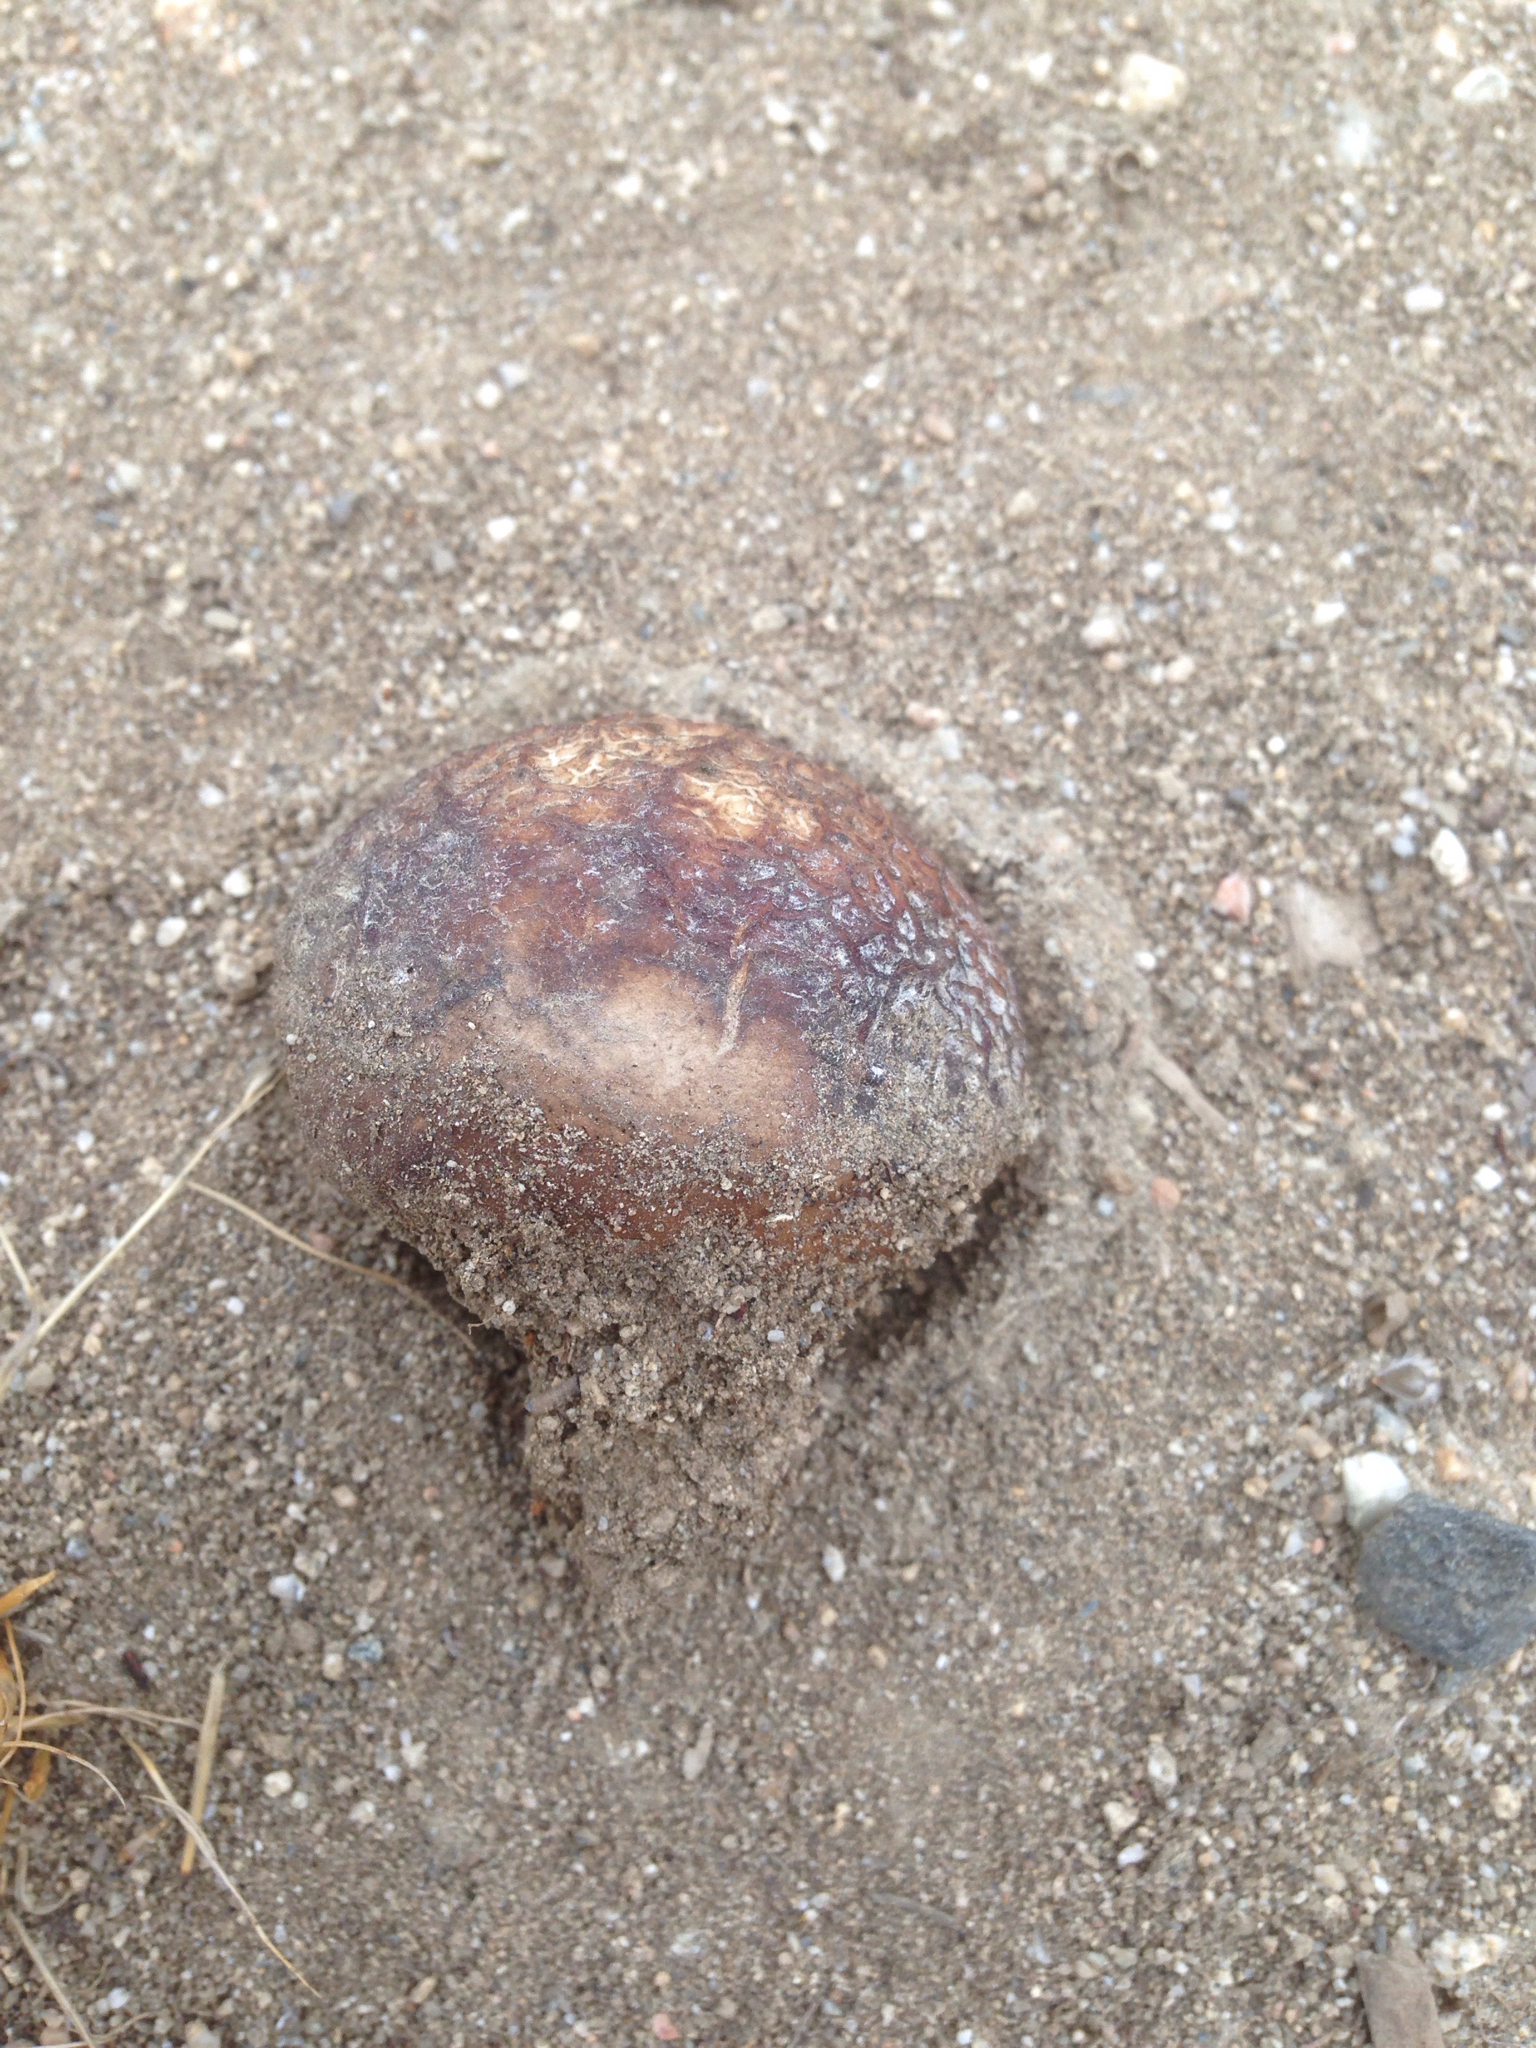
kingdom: Fungi
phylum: Basidiomycota
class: Agaricomycetes
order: Agaricales
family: Lycoperdaceae
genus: Calvatia
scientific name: Calvatia fragilis
